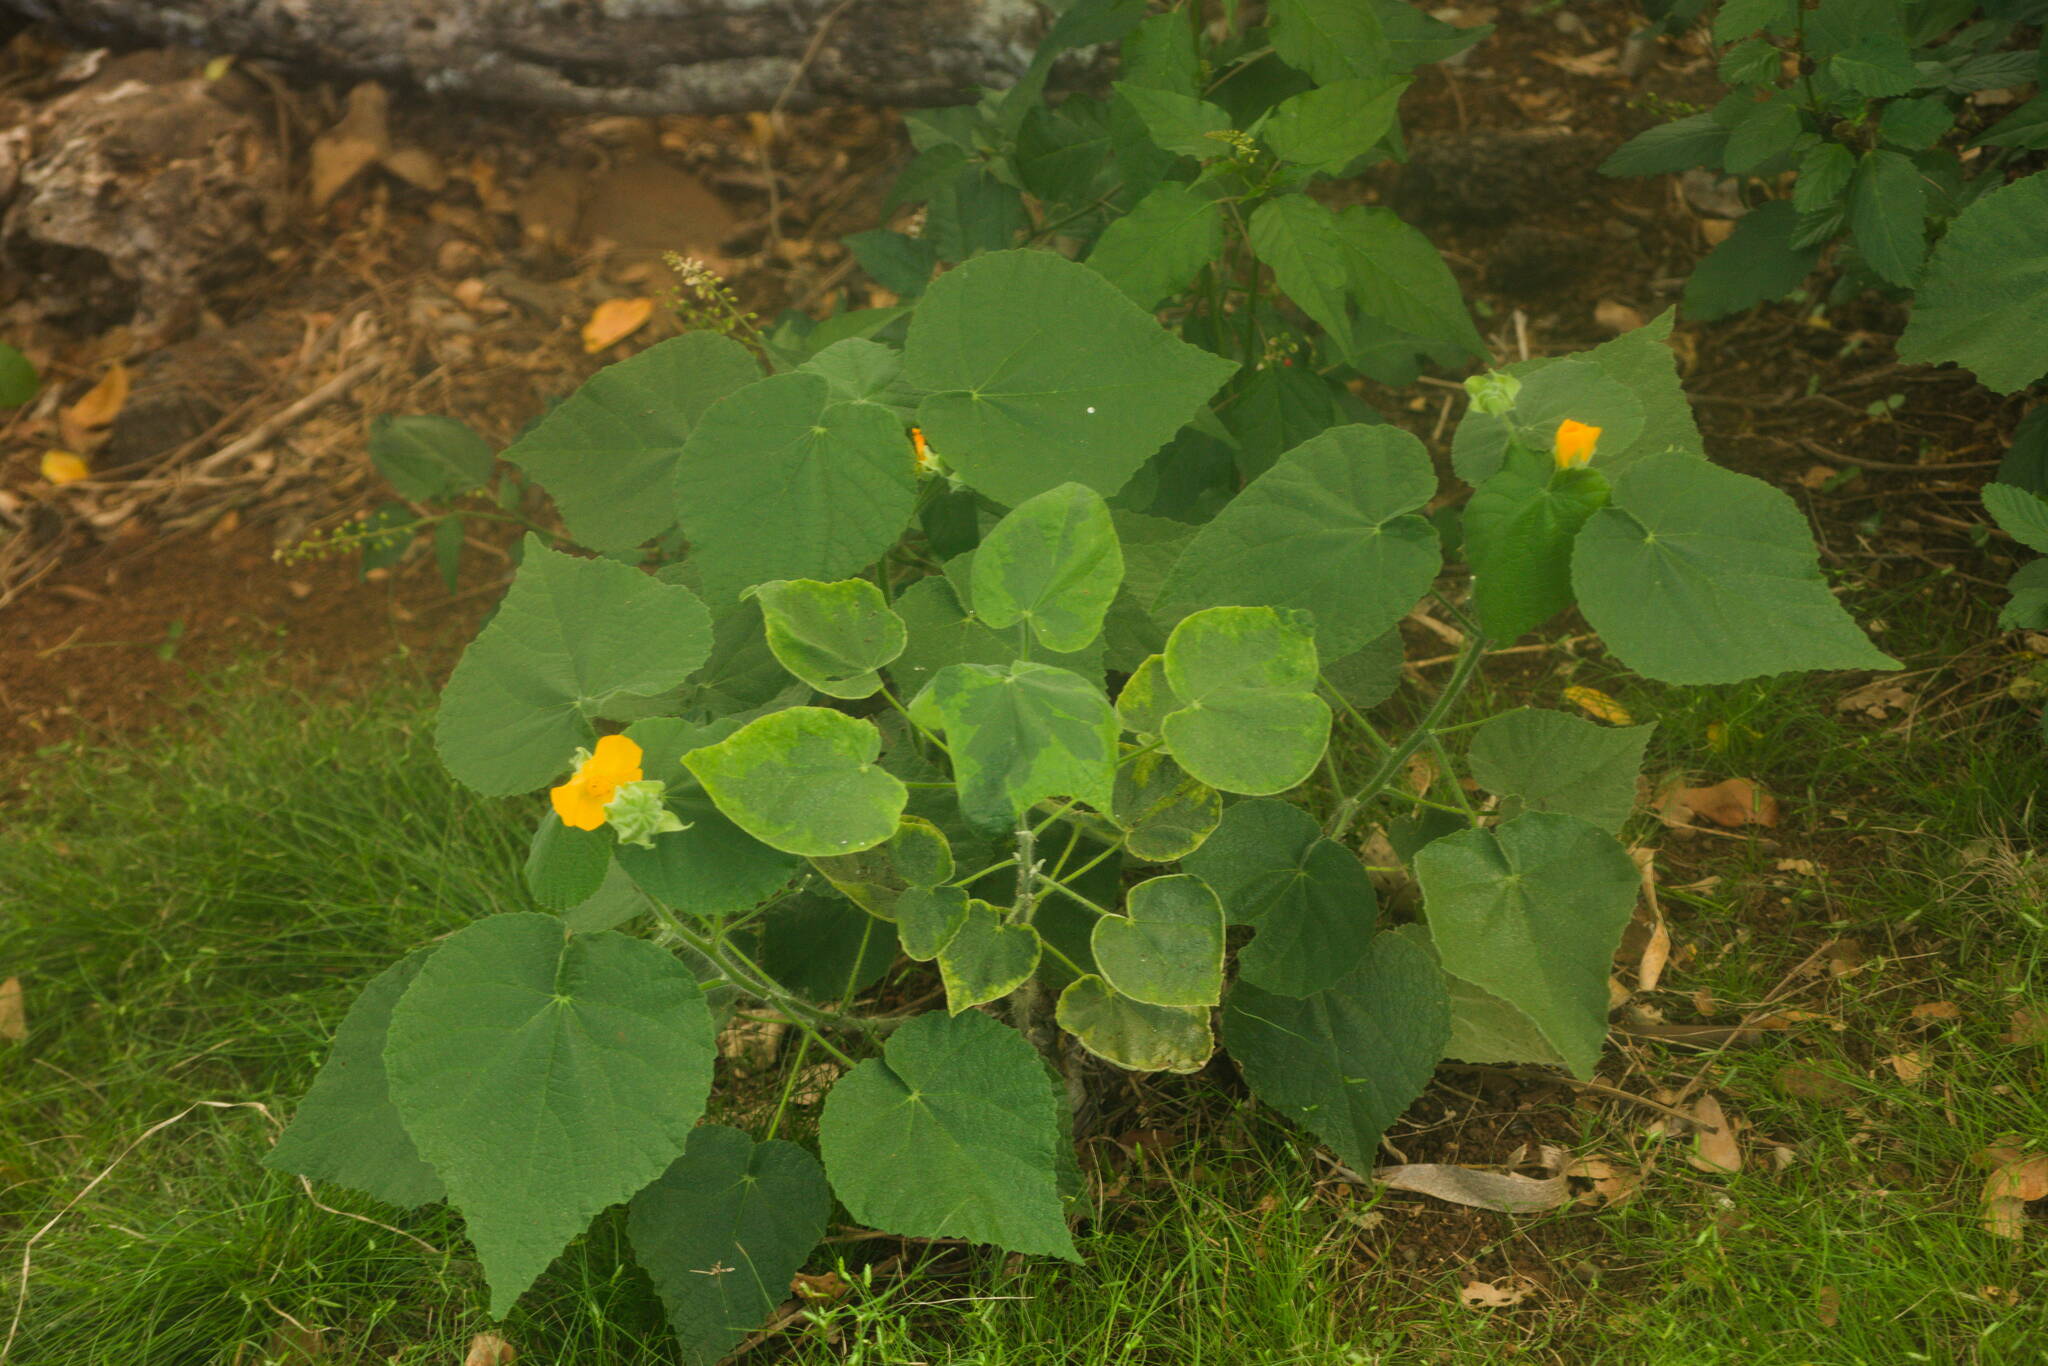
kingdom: Plantae
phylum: Tracheophyta
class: Magnoliopsida
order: Malvales
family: Malvaceae
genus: Abutilon
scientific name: Abutilon grandifolium
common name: Hairy abutilon
